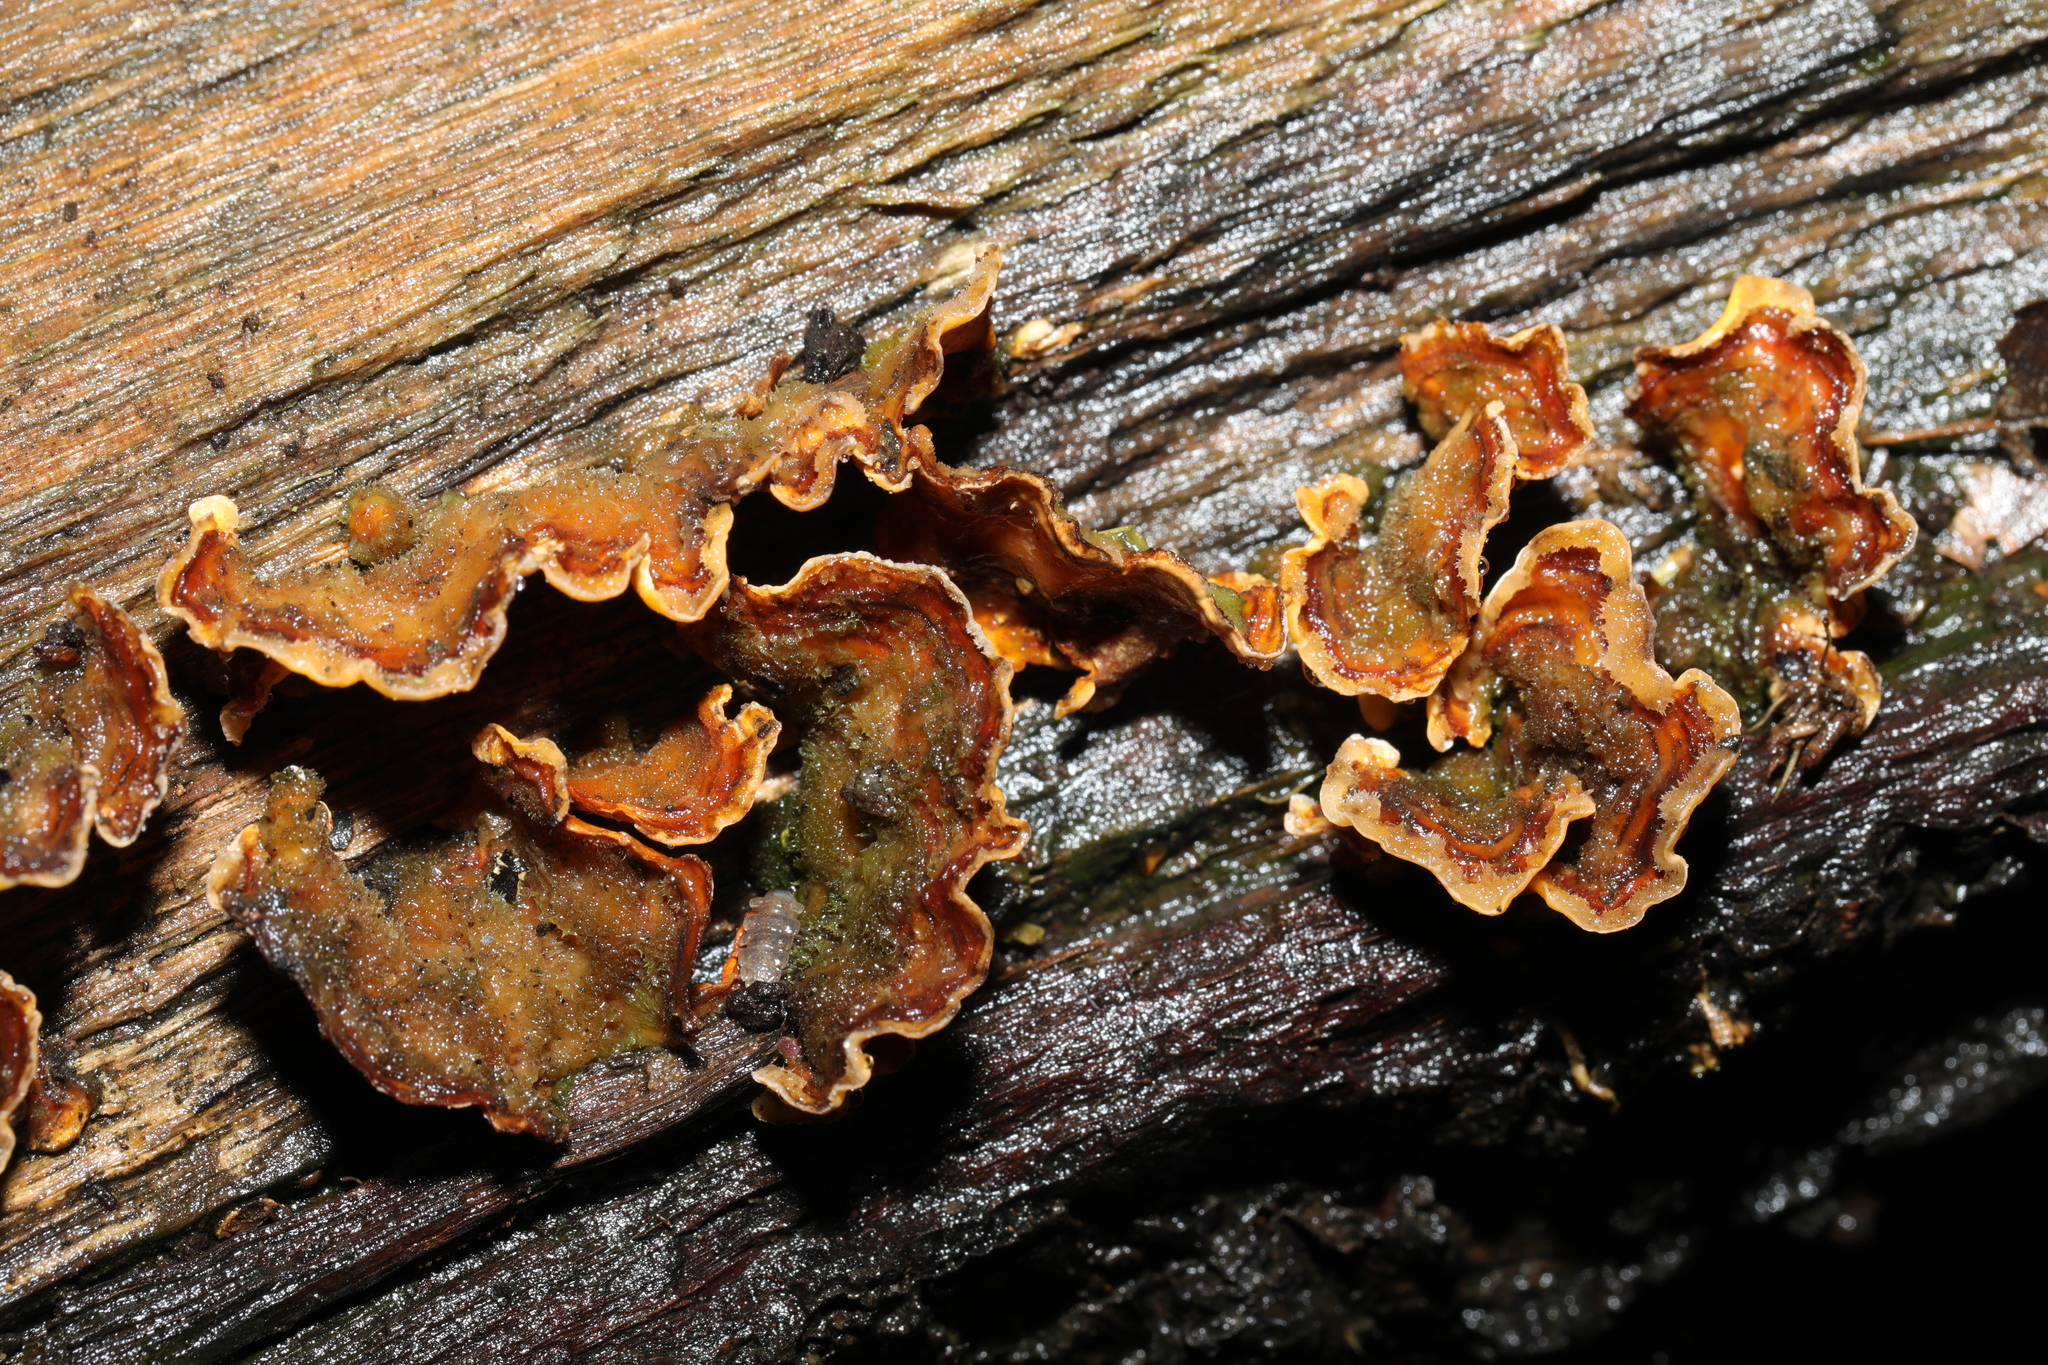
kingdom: Fungi
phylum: Basidiomycota
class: Agaricomycetes
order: Russulales
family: Stereaceae
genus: Stereum
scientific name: Stereum hirsutum
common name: Hairy curtain crust
